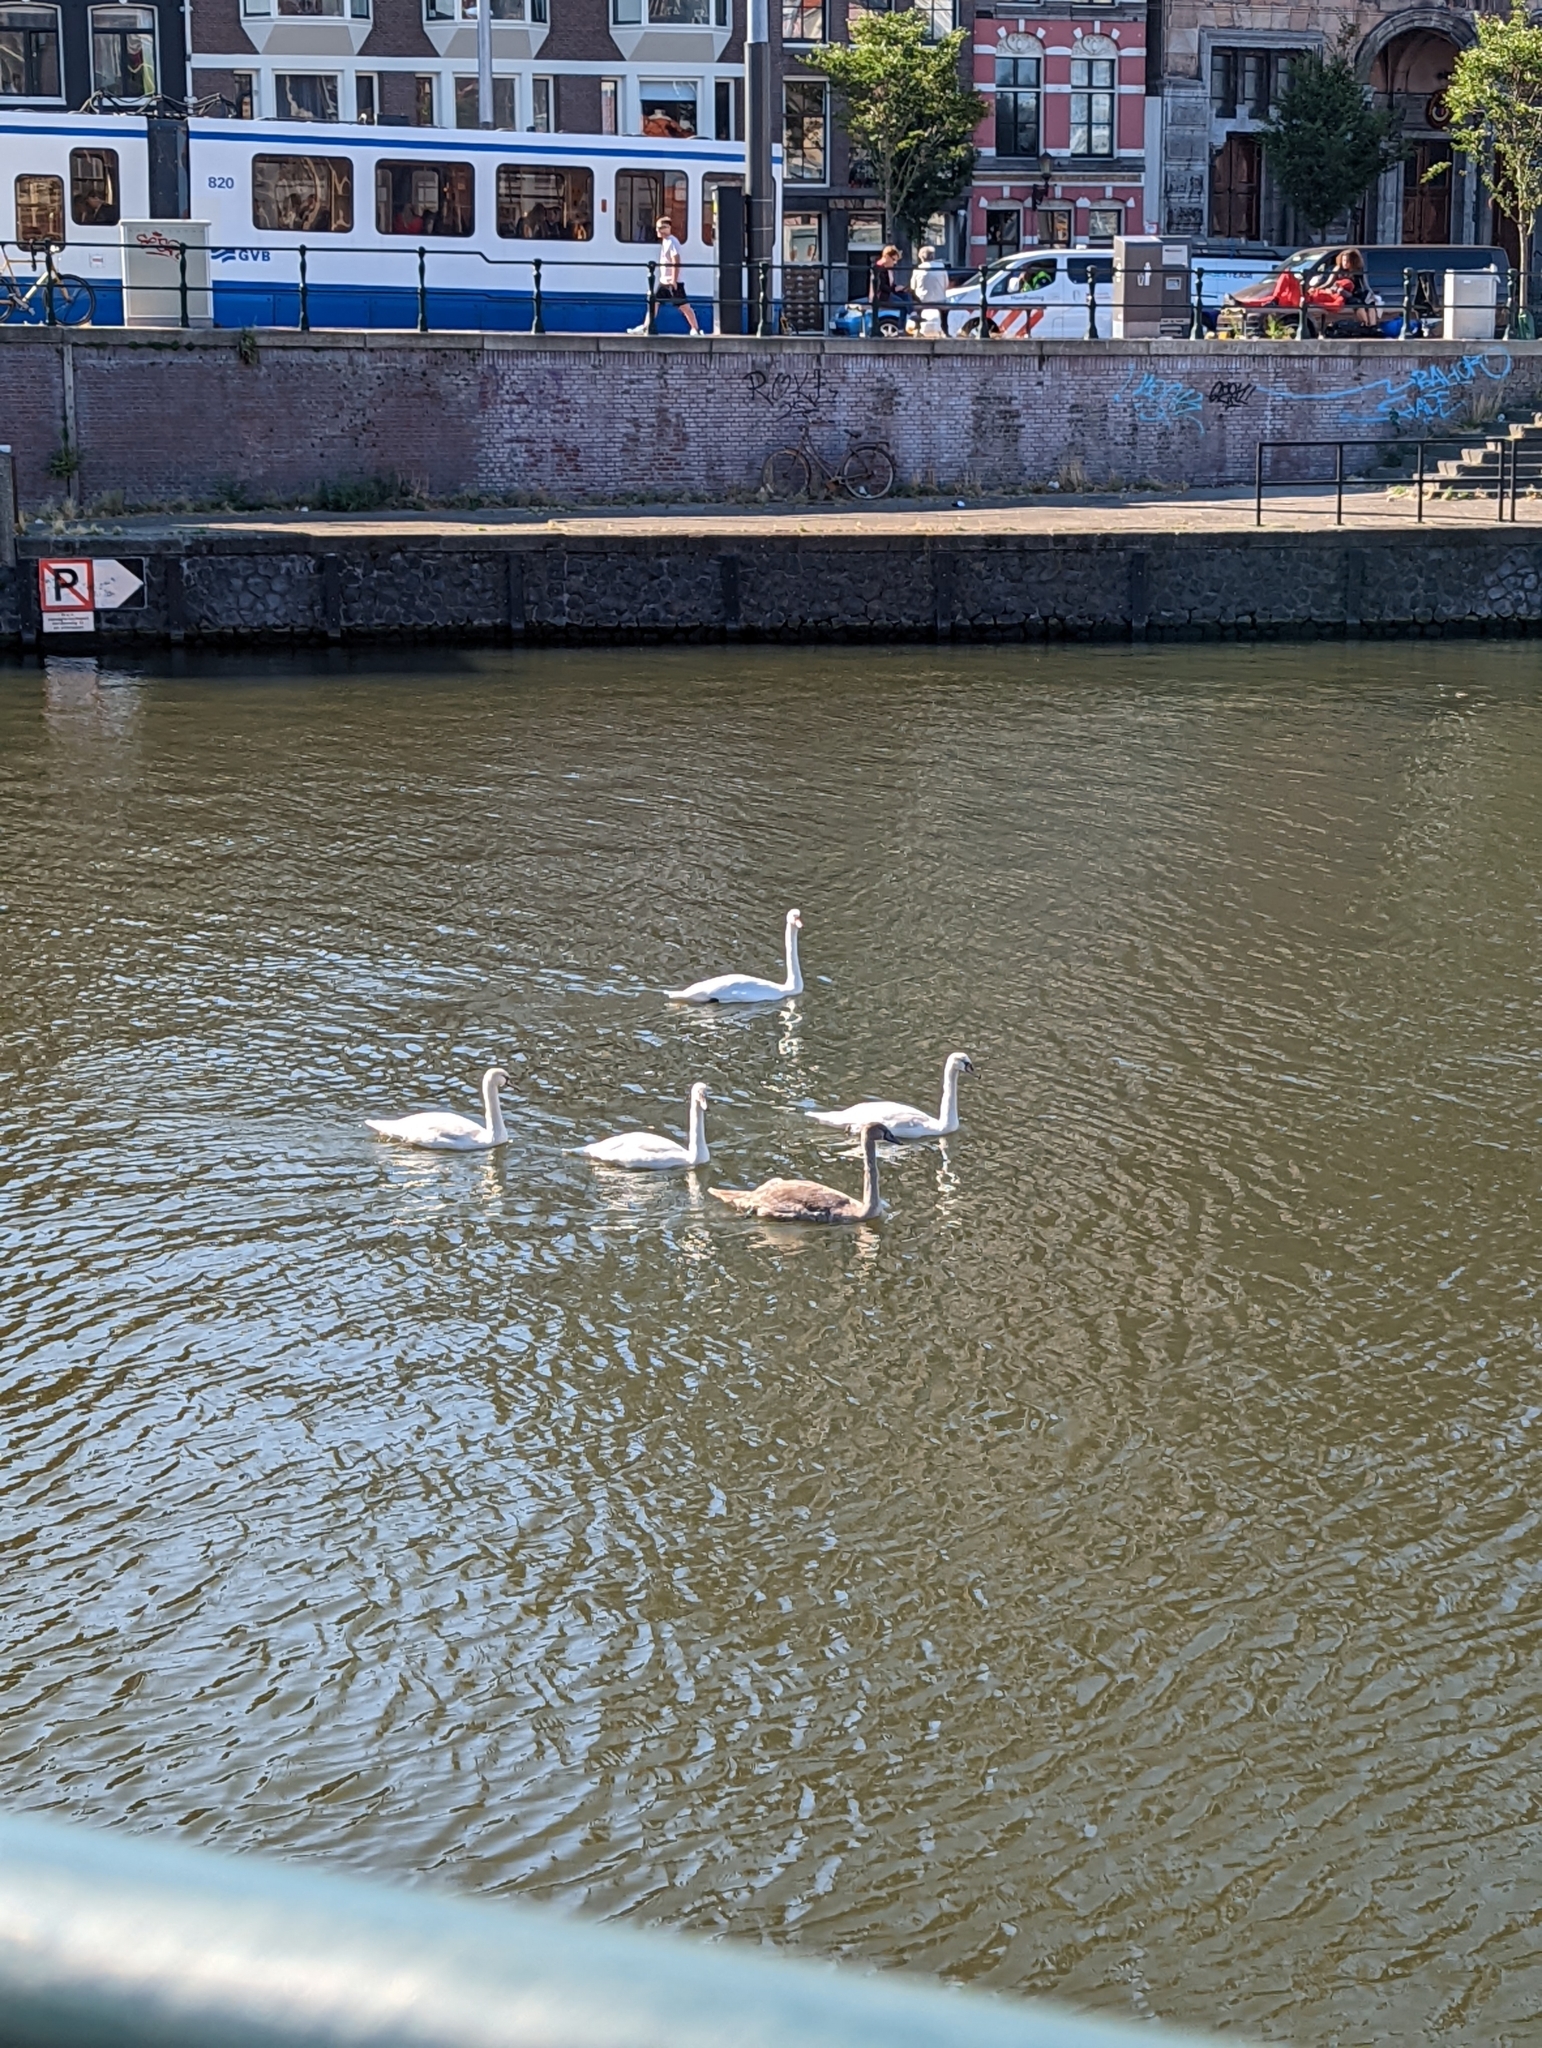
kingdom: Animalia
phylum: Chordata
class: Aves
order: Anseriformes
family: Anatidae
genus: Cygnus
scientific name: Cygnus olor
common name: Mute swan
